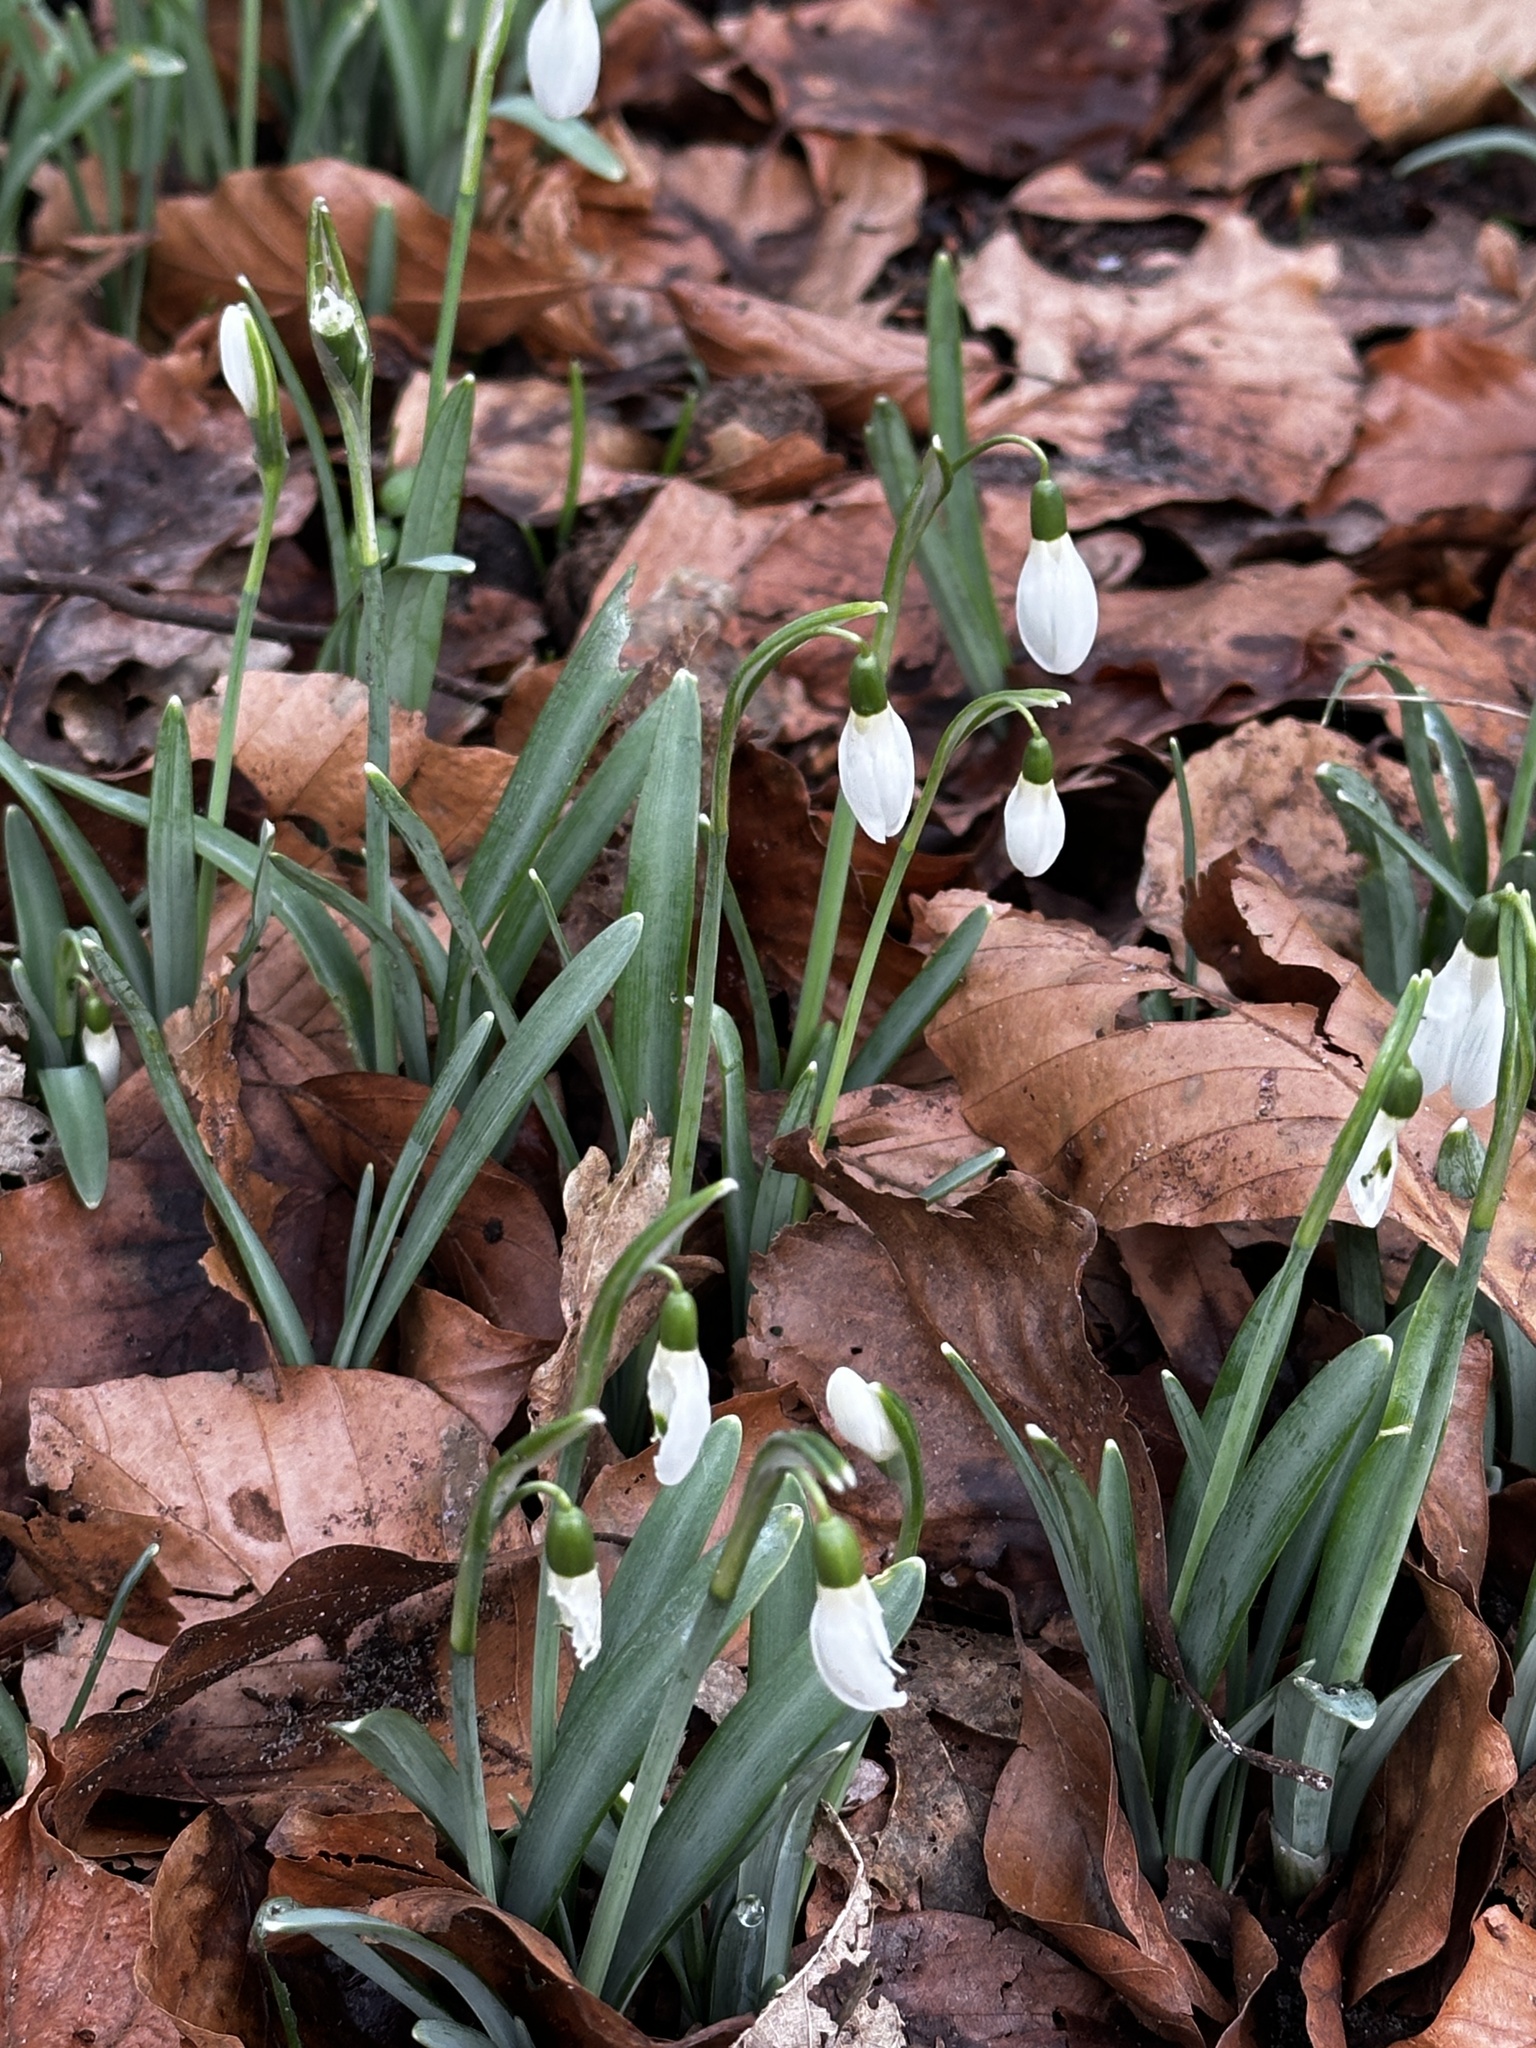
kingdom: Plantae
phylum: Tracheophyta
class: Liliopsida
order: Asparagales
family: Amaryllidaceae
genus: Galanthus
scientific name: Galanthus nivalis
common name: Snowdrop
